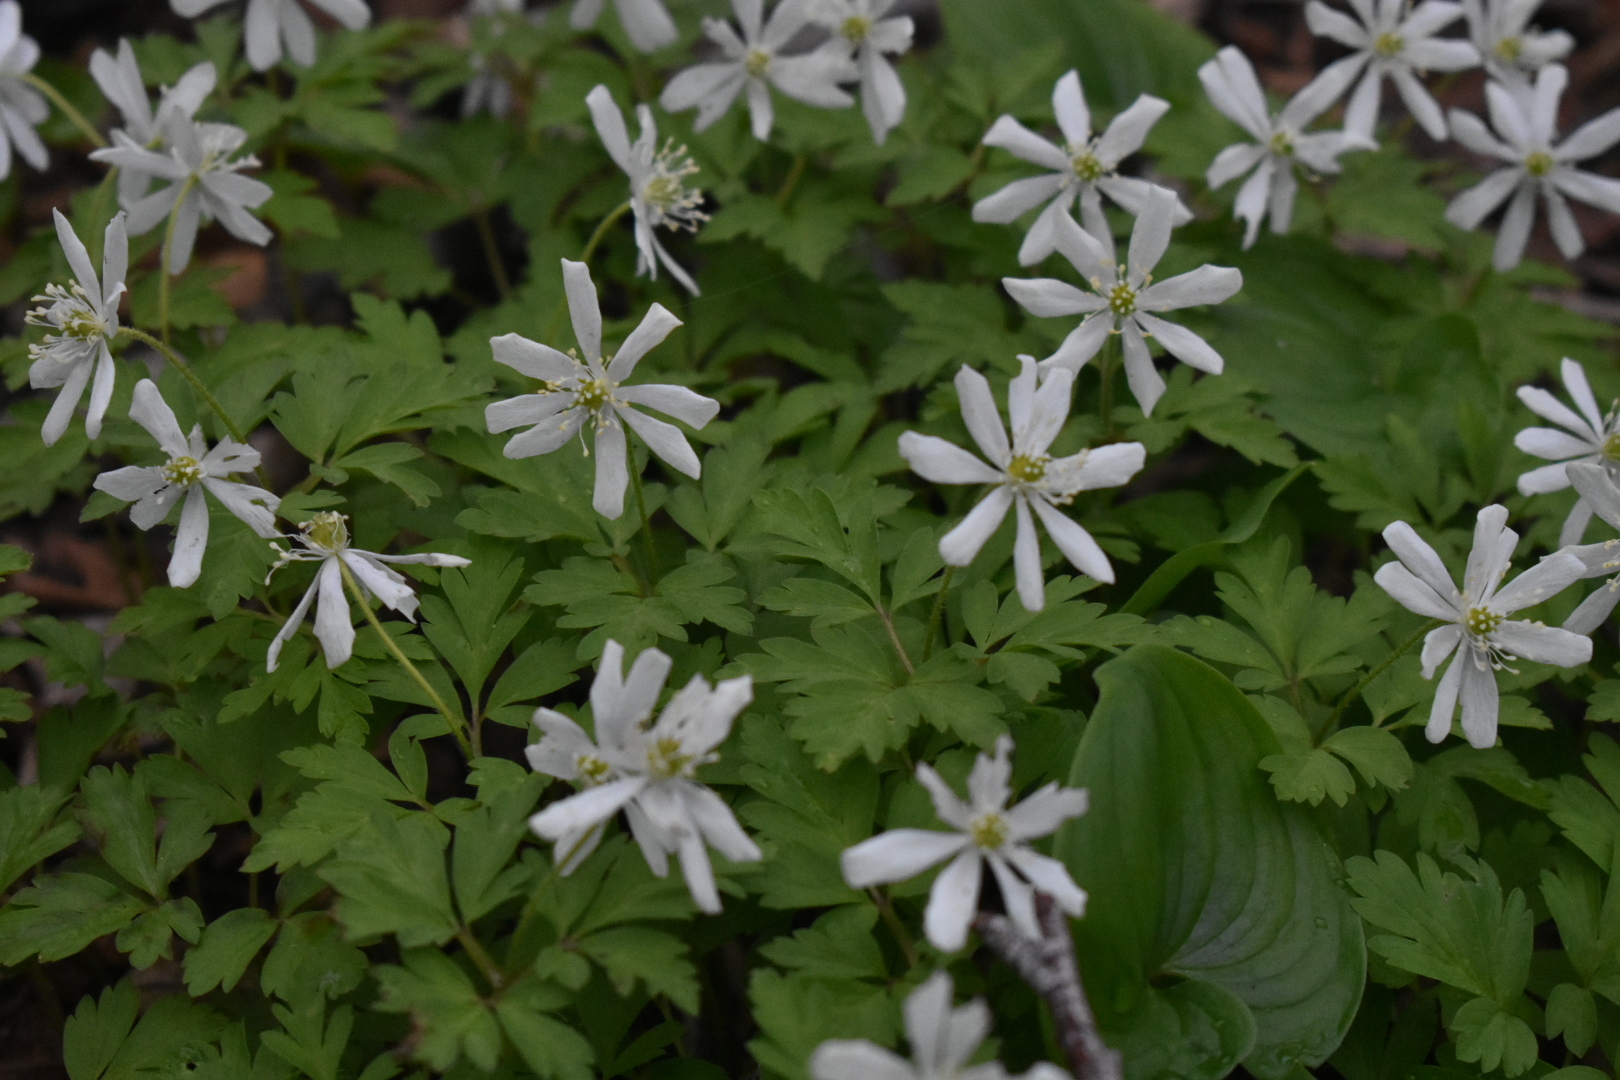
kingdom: Plantae
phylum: Tracheophyta
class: Magnoliopsida
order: Ranunculales
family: Ranunculaceae
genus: Anemone
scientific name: Anemone amurensis
